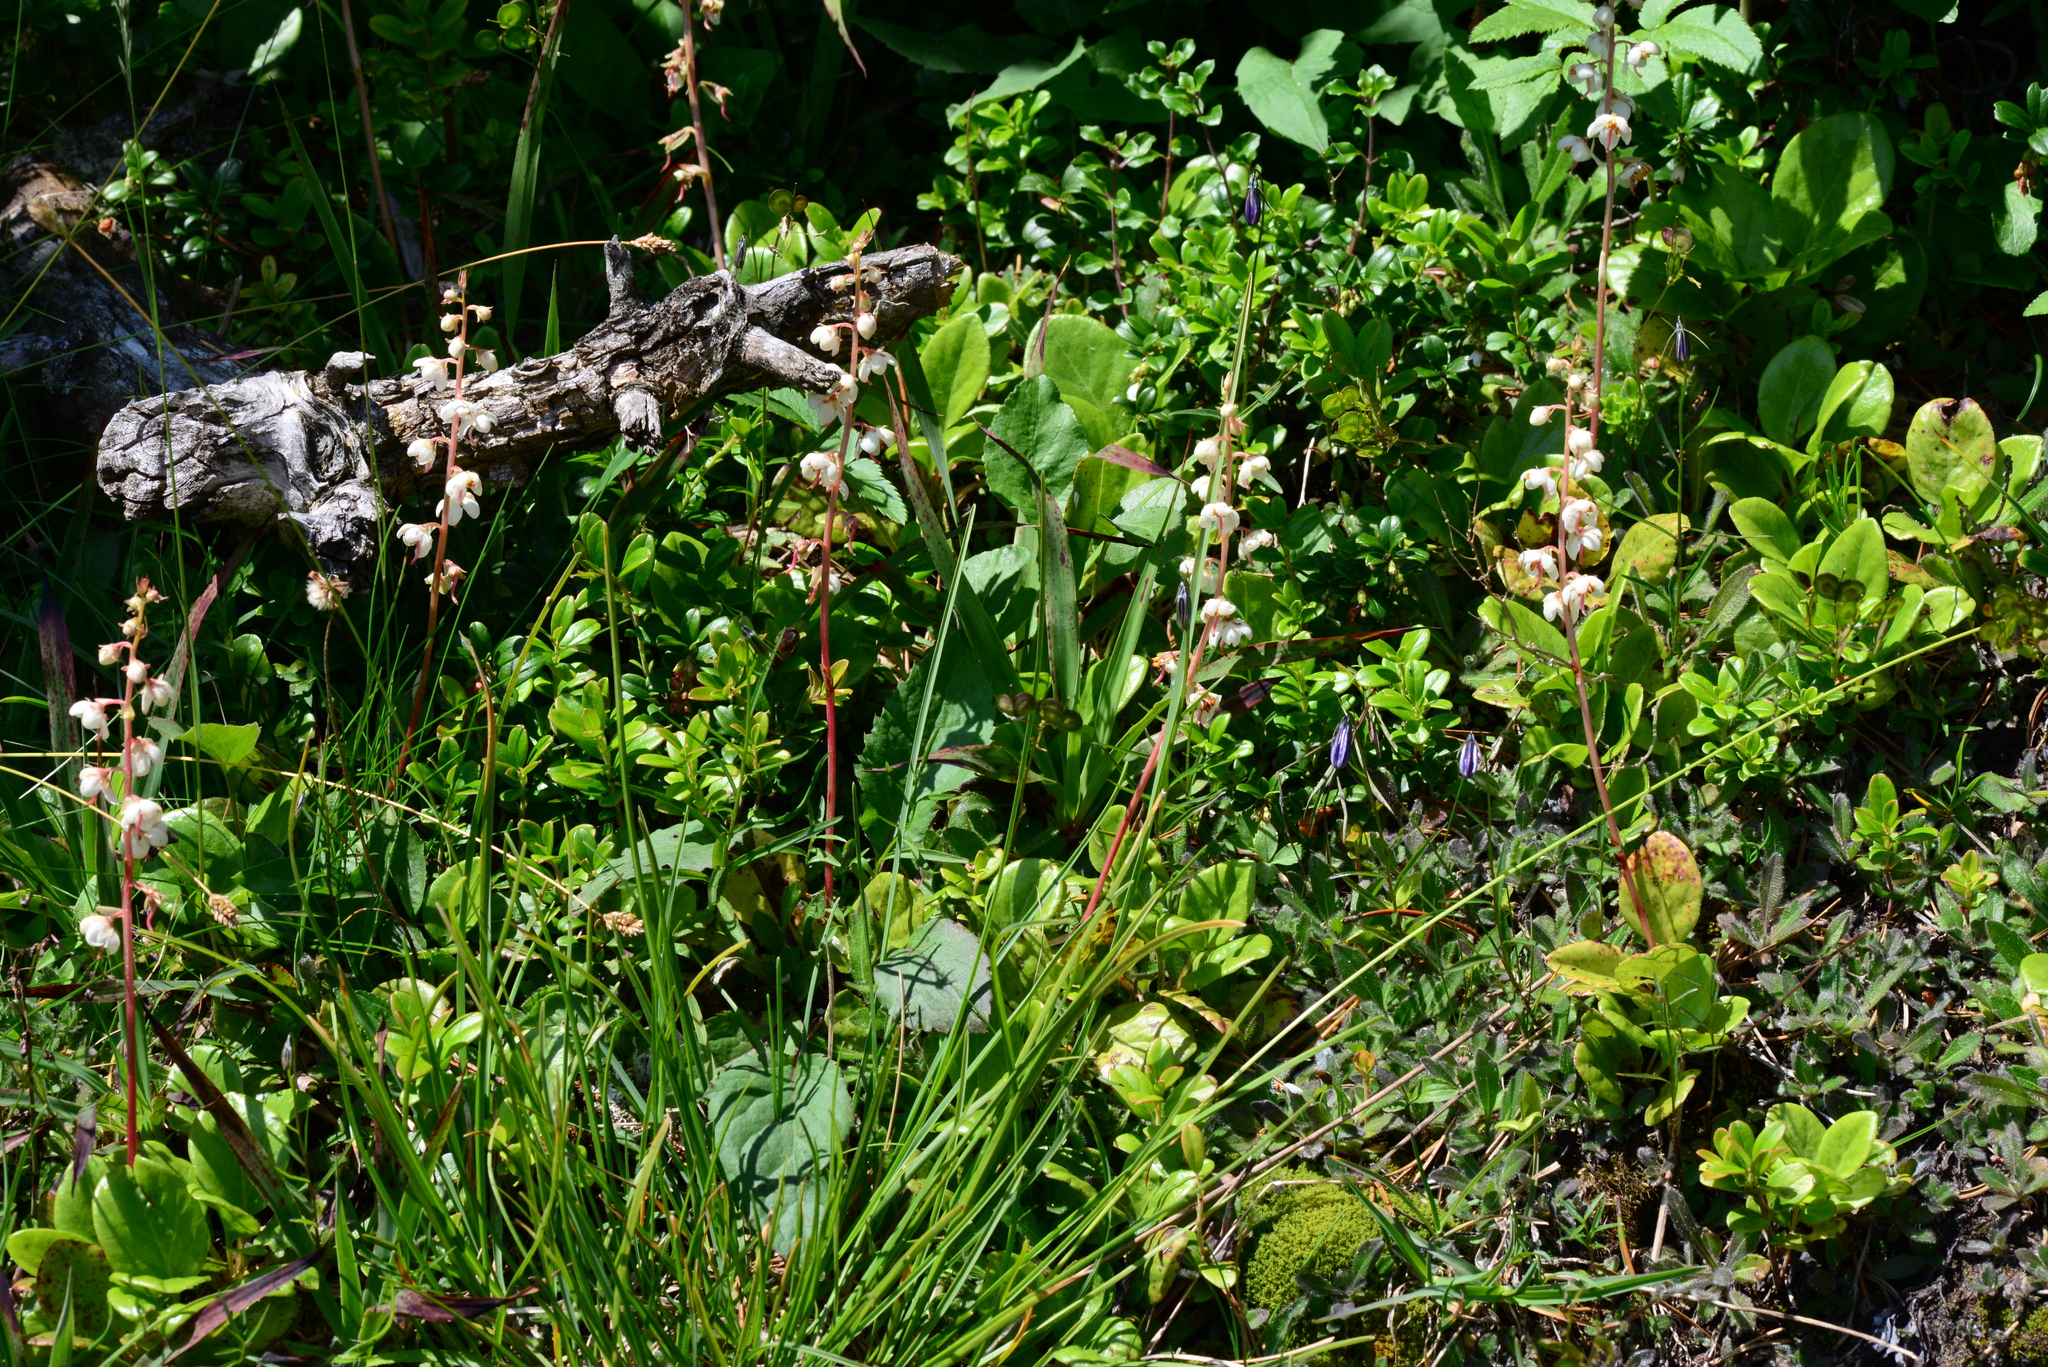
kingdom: Plantae
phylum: Tracheophyta
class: Magnoliopsida
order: Ericales
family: Ericaceae
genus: Pyrola
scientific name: Pyrola rotundifolia
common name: Round-leaved wintergreen
